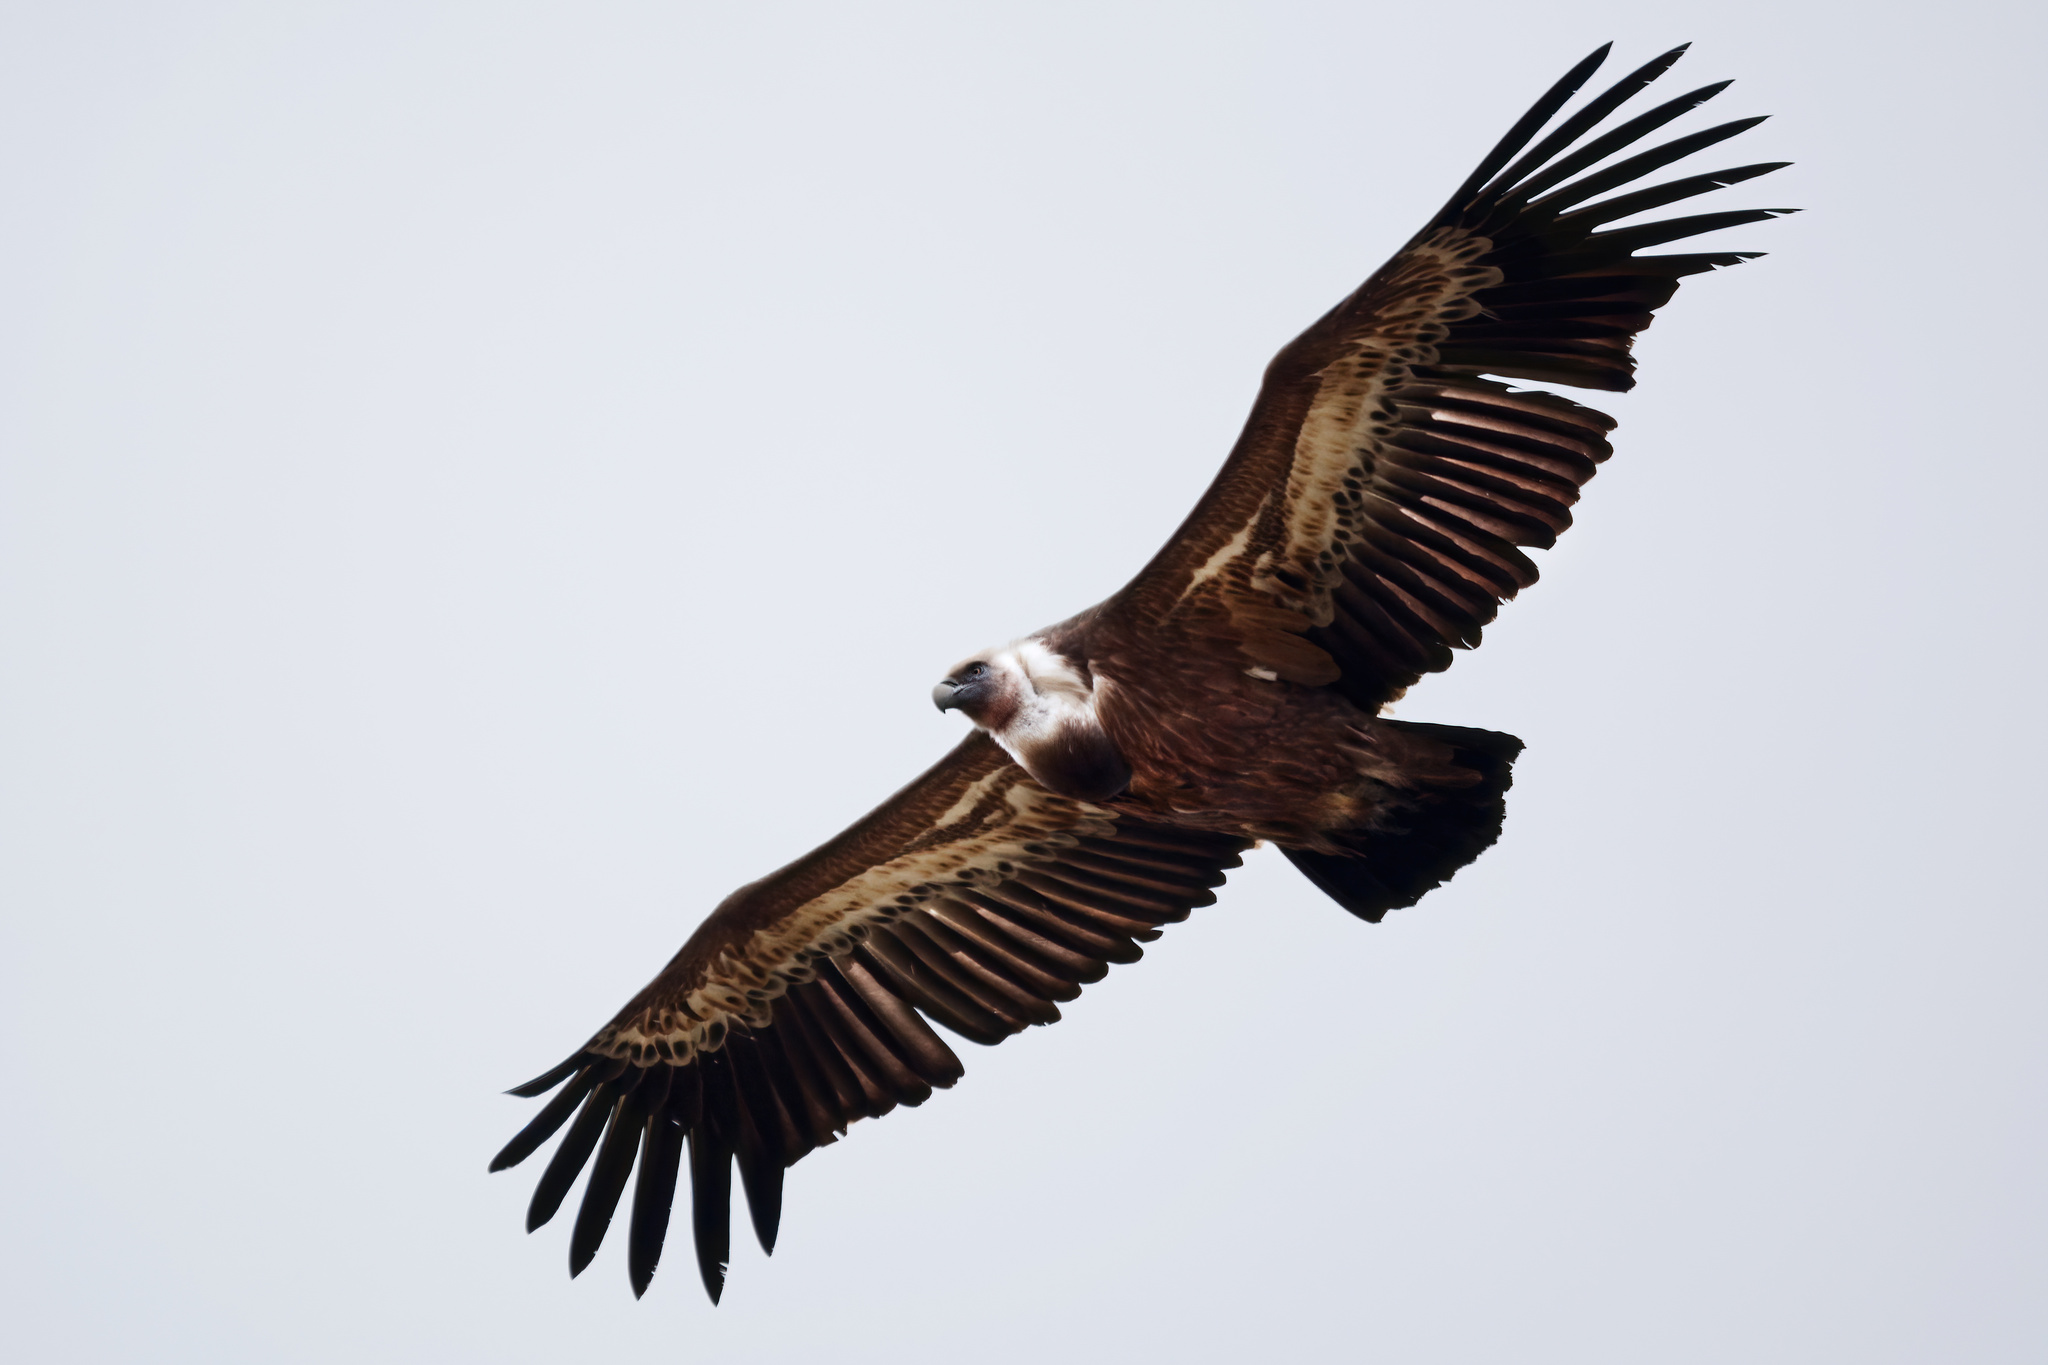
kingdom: Animalia
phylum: Chordata
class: Aves
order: Accipitriformes
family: Accipitridae
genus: Gyps
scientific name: Gyps fulvus
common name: Griffon vulture
